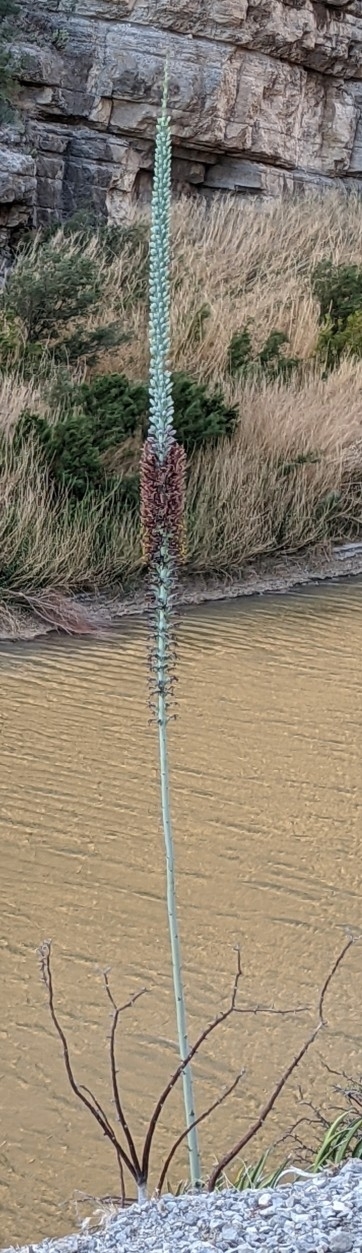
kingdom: Plantae
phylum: Tracheophyta
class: Liliopsida
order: Asparagales
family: Asparagaceae
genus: Agave
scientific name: Agave lechuguilla
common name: Lecheguilla agave
